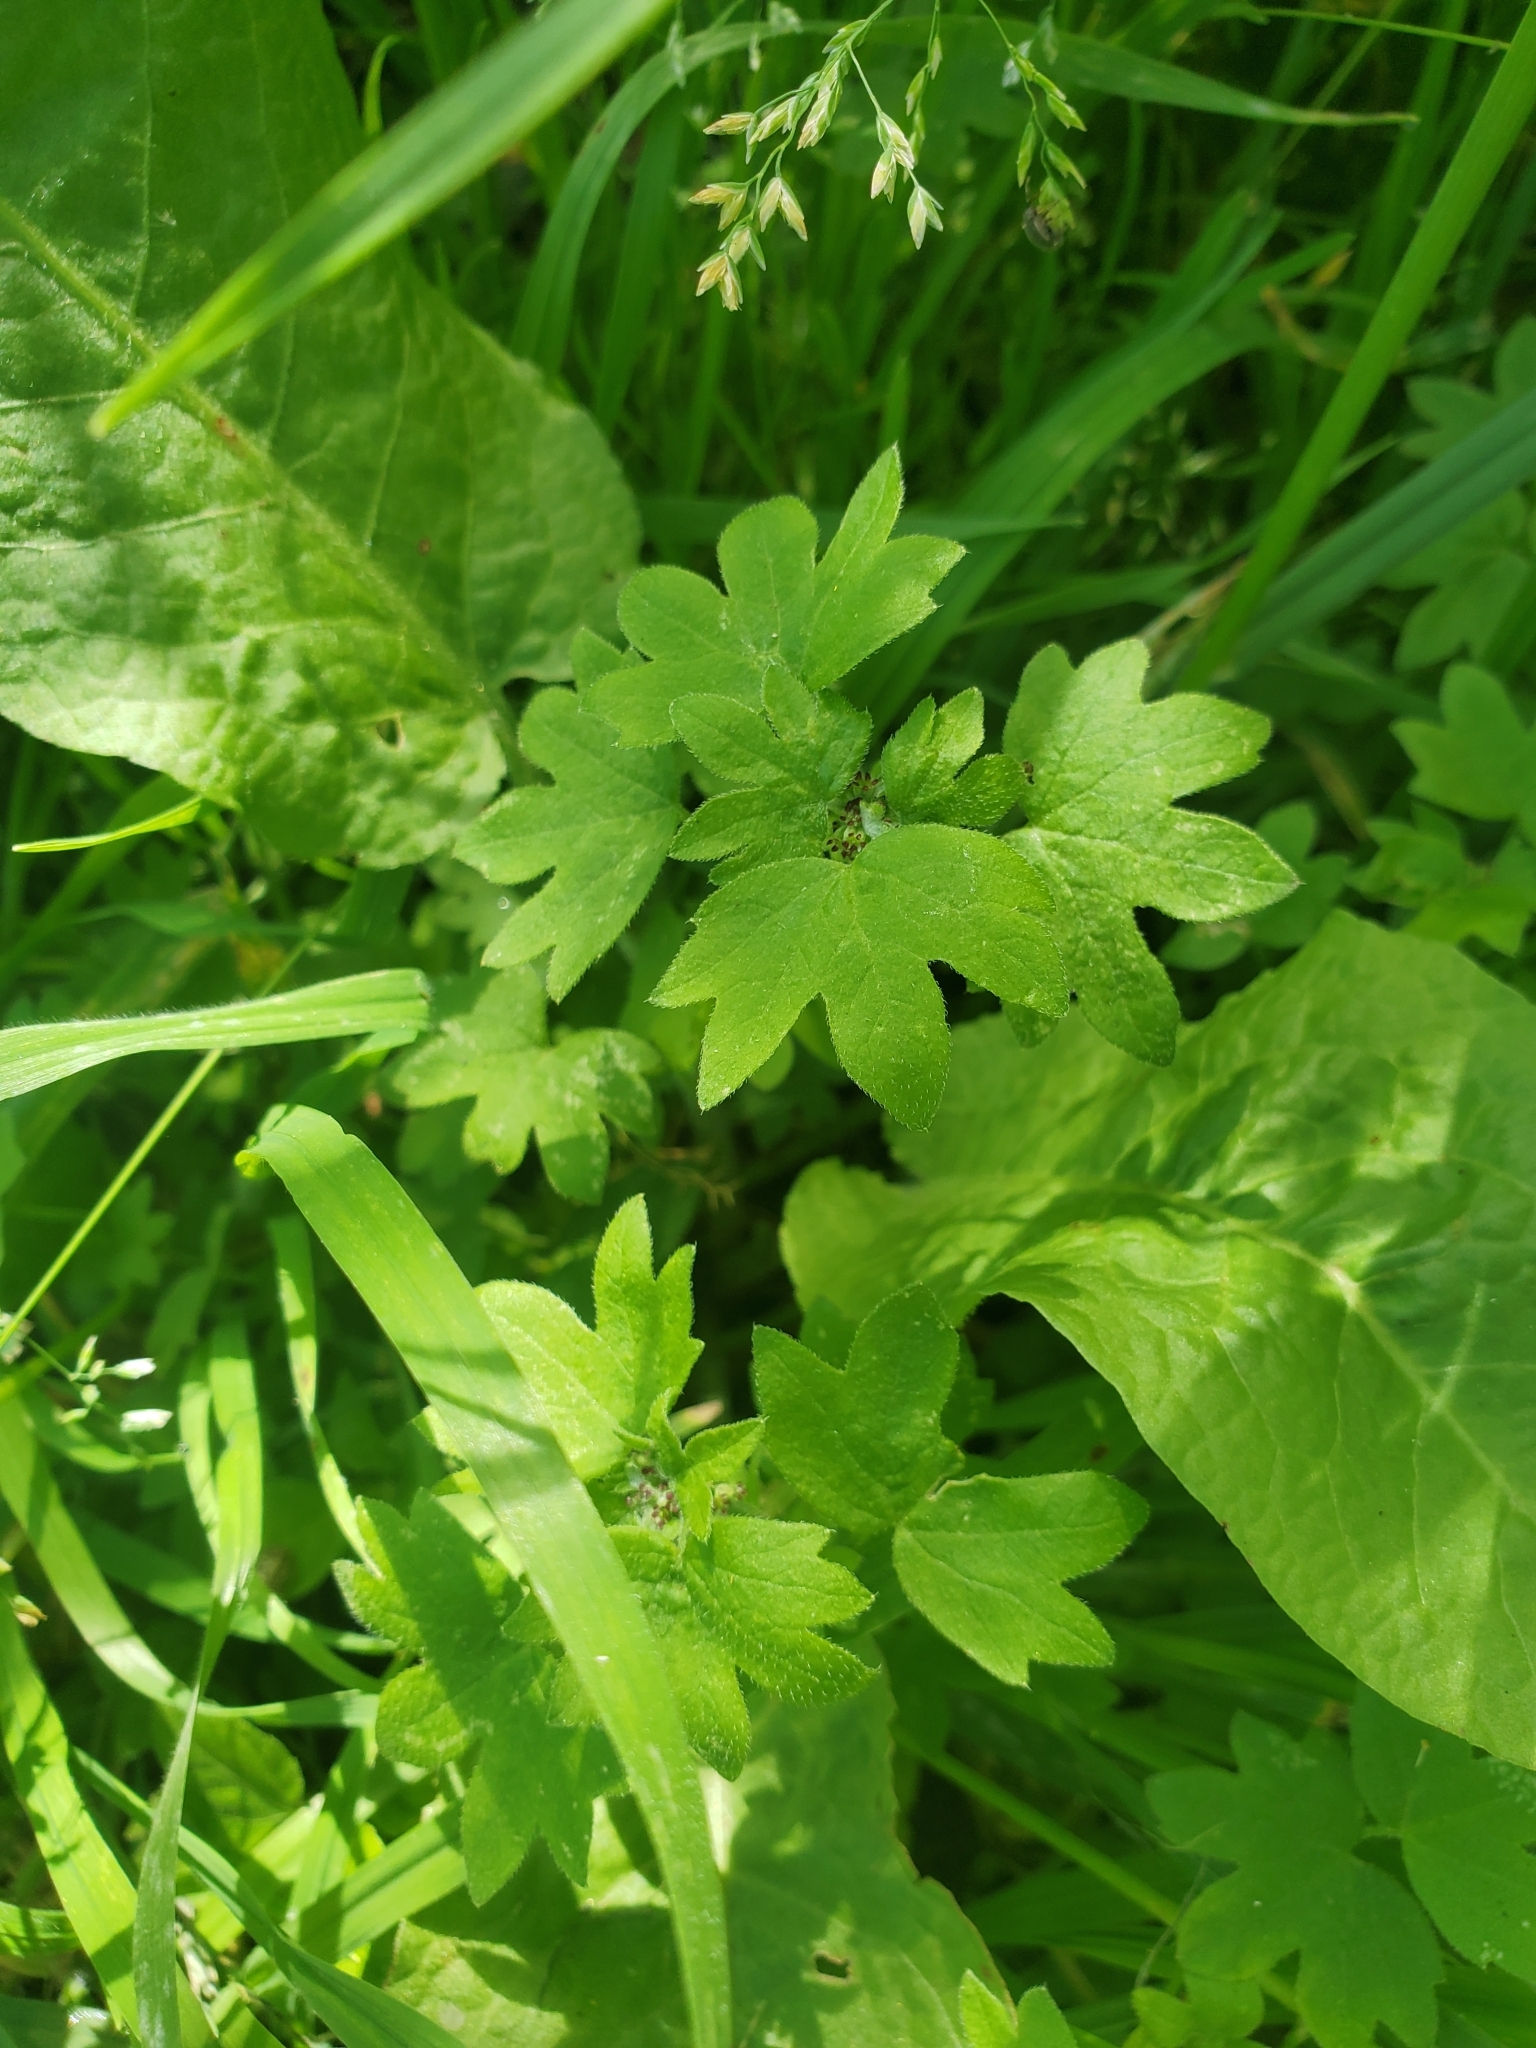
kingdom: Plantae
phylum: Tracheophyta
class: Magnoliopsida
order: Apiales
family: Apiaceae
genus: Bowlesia
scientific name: Bowlesia incana
